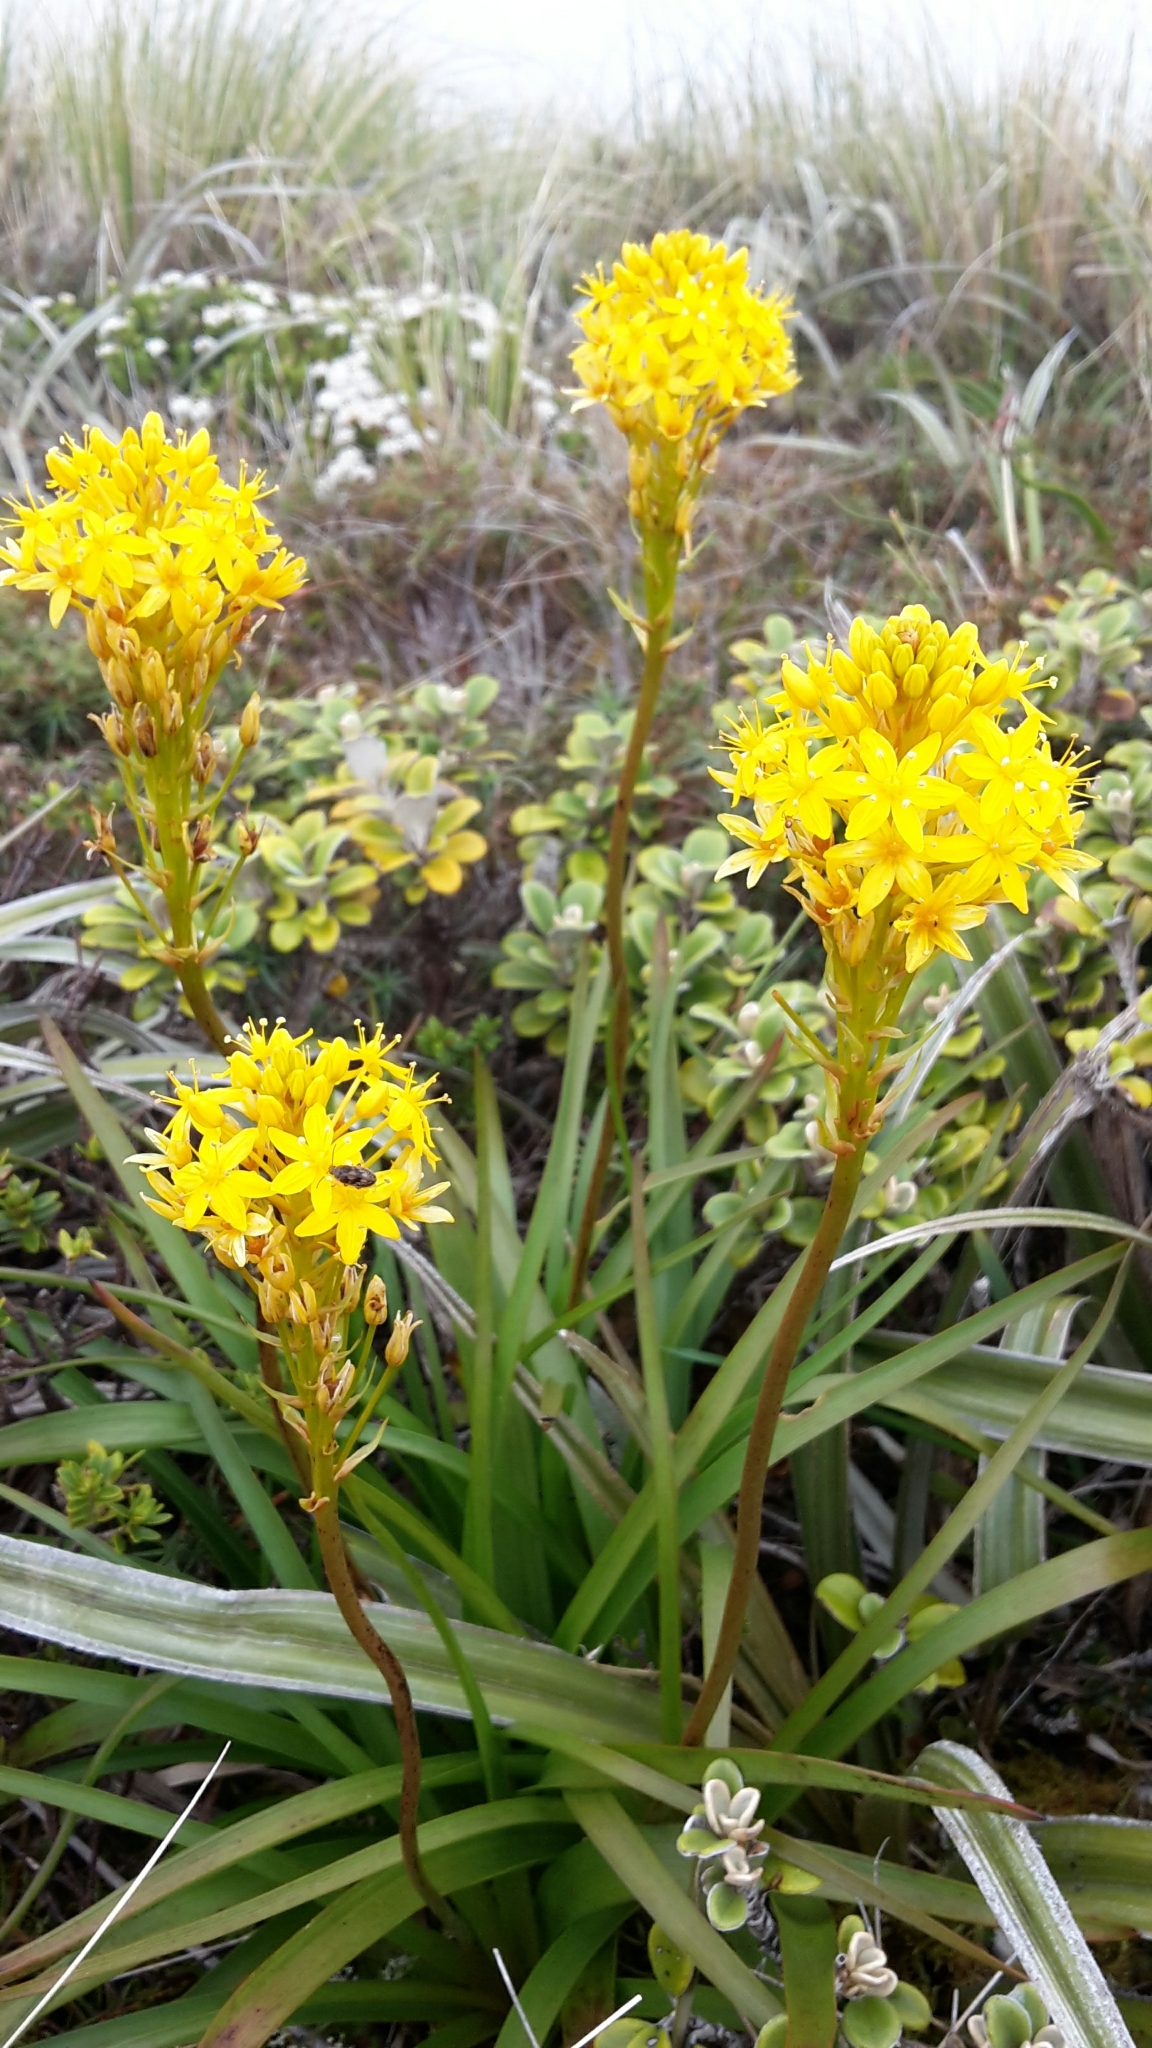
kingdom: Plantae
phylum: Tracheophyta
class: Liliopsida
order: Asparagales
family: Asphodelaceae
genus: Bulbinella
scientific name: Bulbinella gibbsii
